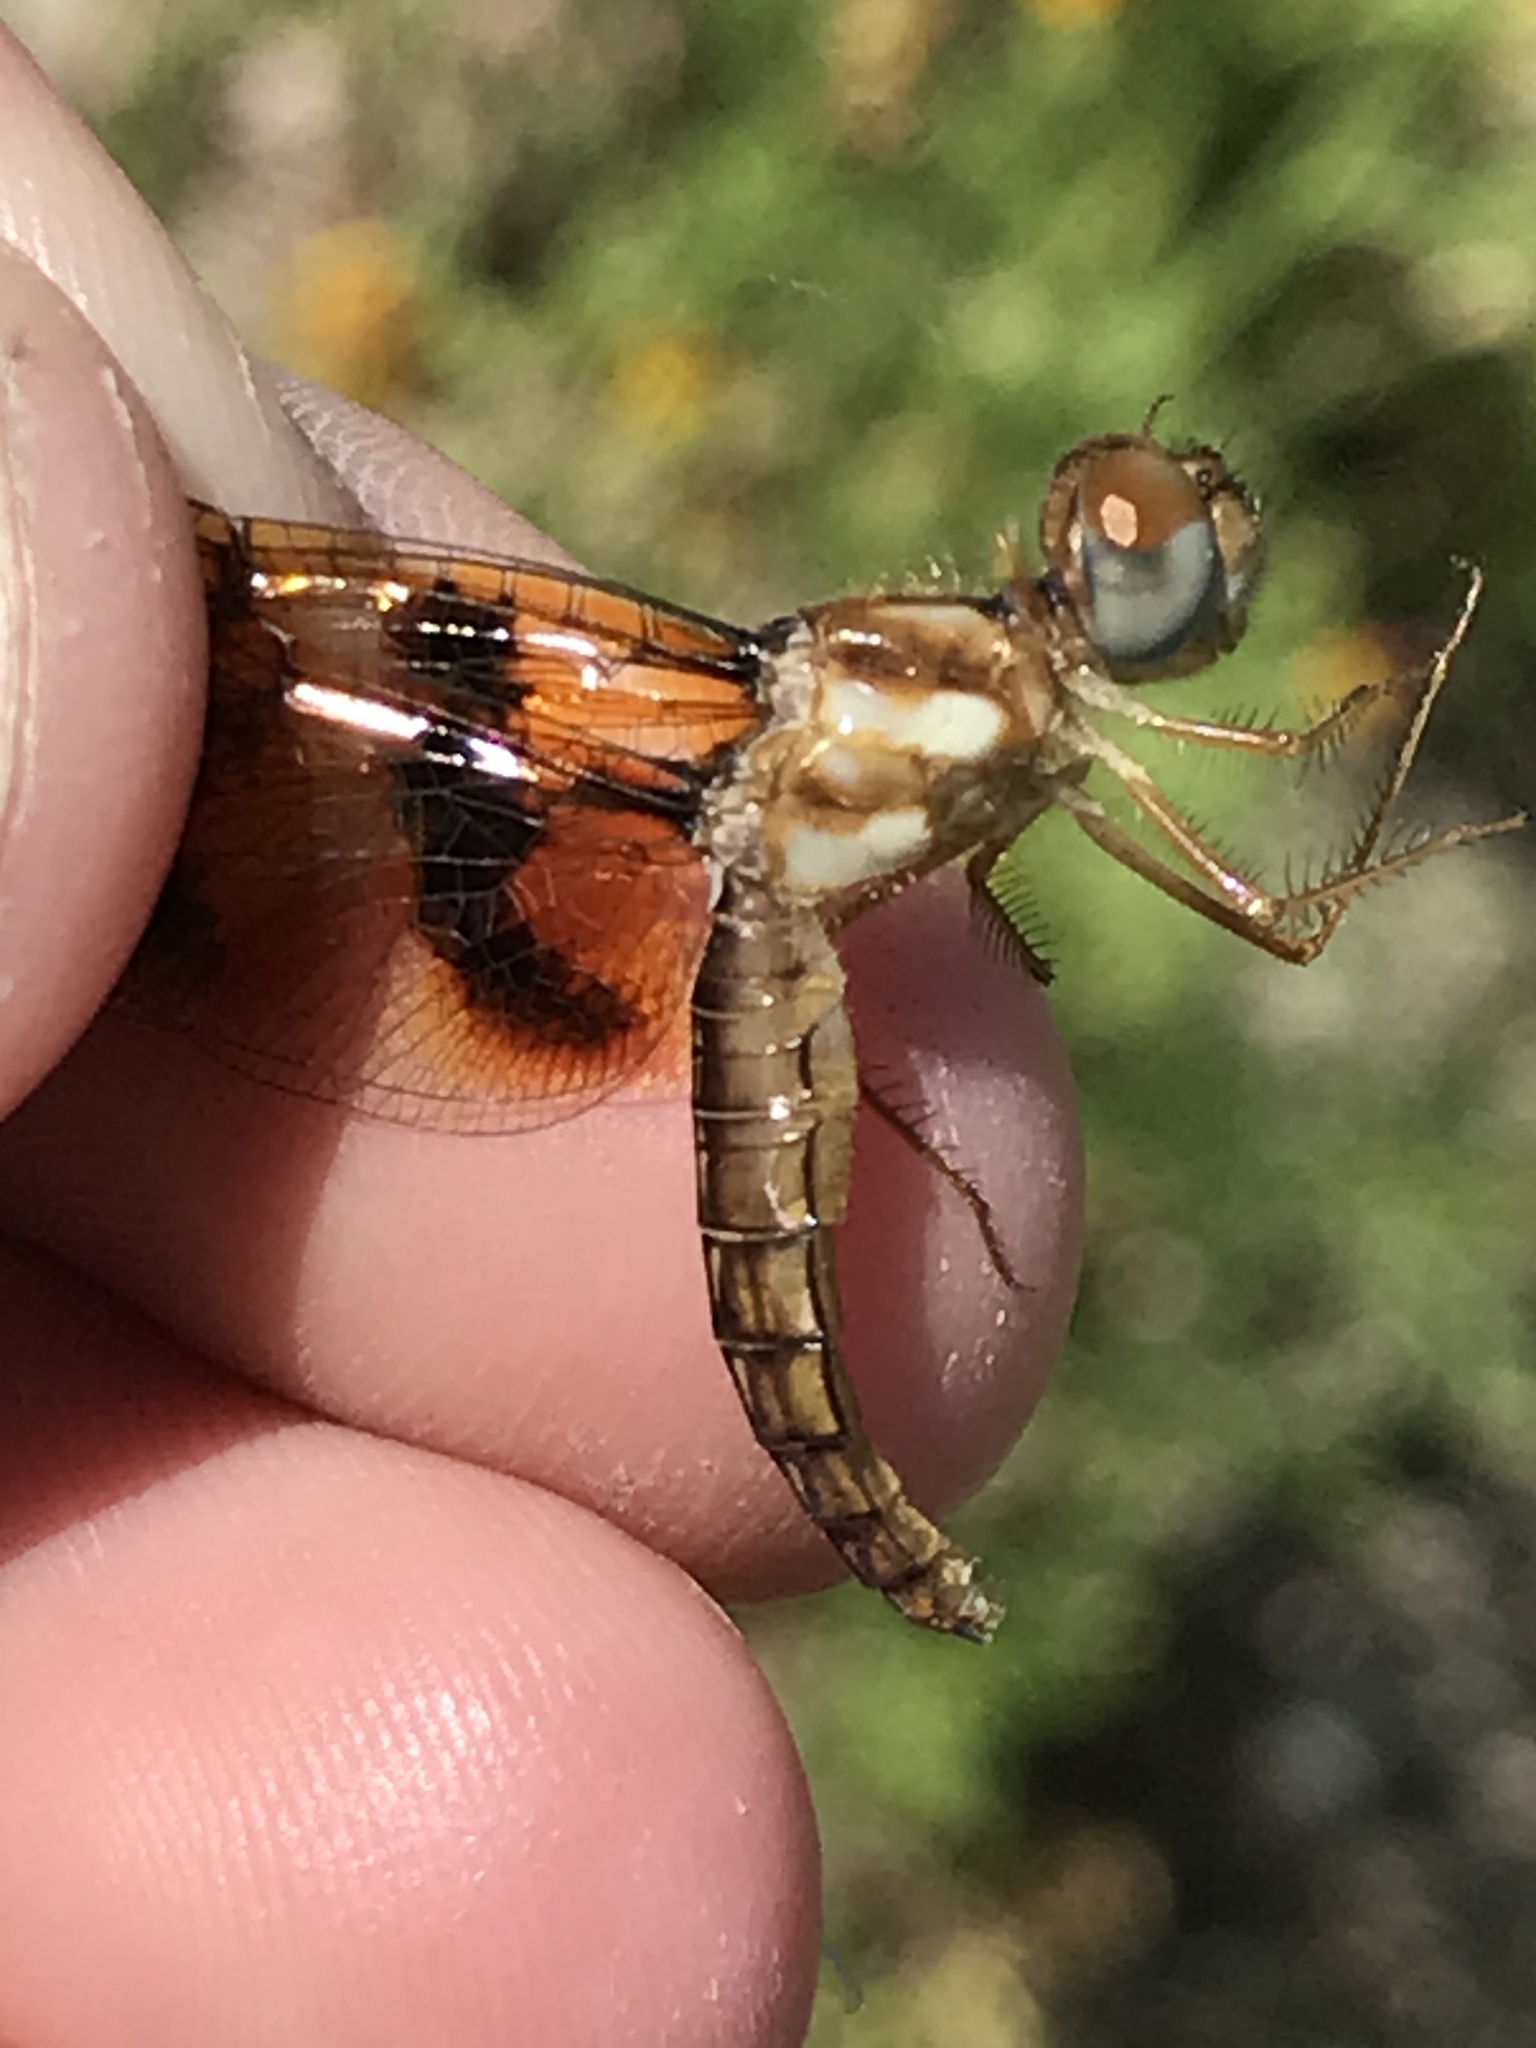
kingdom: Animalia
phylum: Arthropoda
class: Insecta
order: Odonata
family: Libellulidae
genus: Perithemis
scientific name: Perithemis tenera
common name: Eastern amberwing
